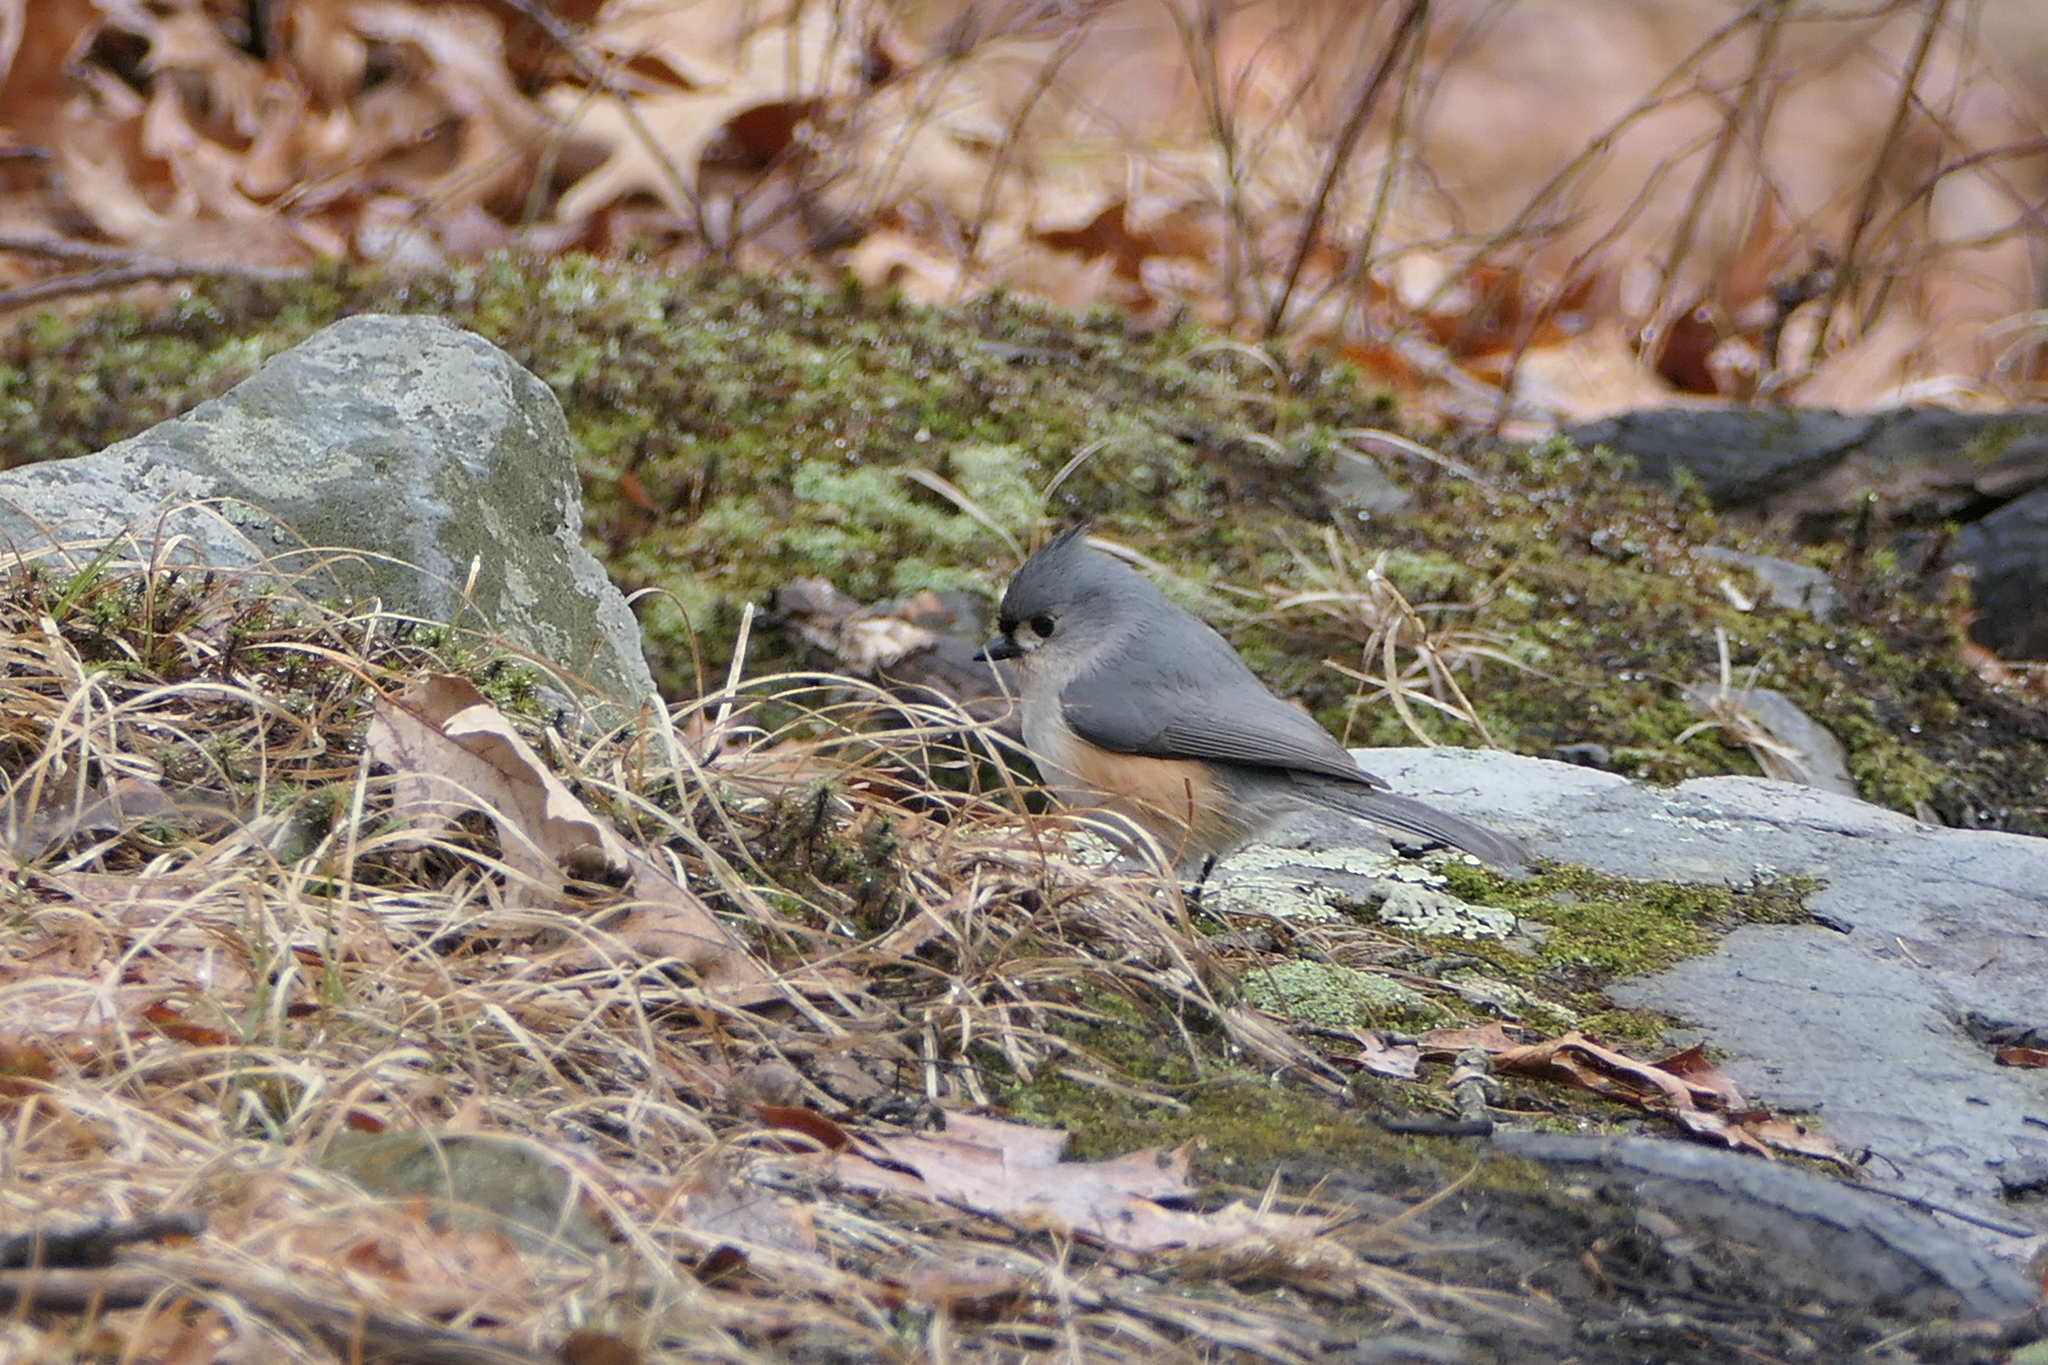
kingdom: Animalia
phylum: Chordata
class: Aves
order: Passeriformes
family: Paridae
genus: Baeolophus
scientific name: Baeolophus bicolor
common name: Tufted titmouse
